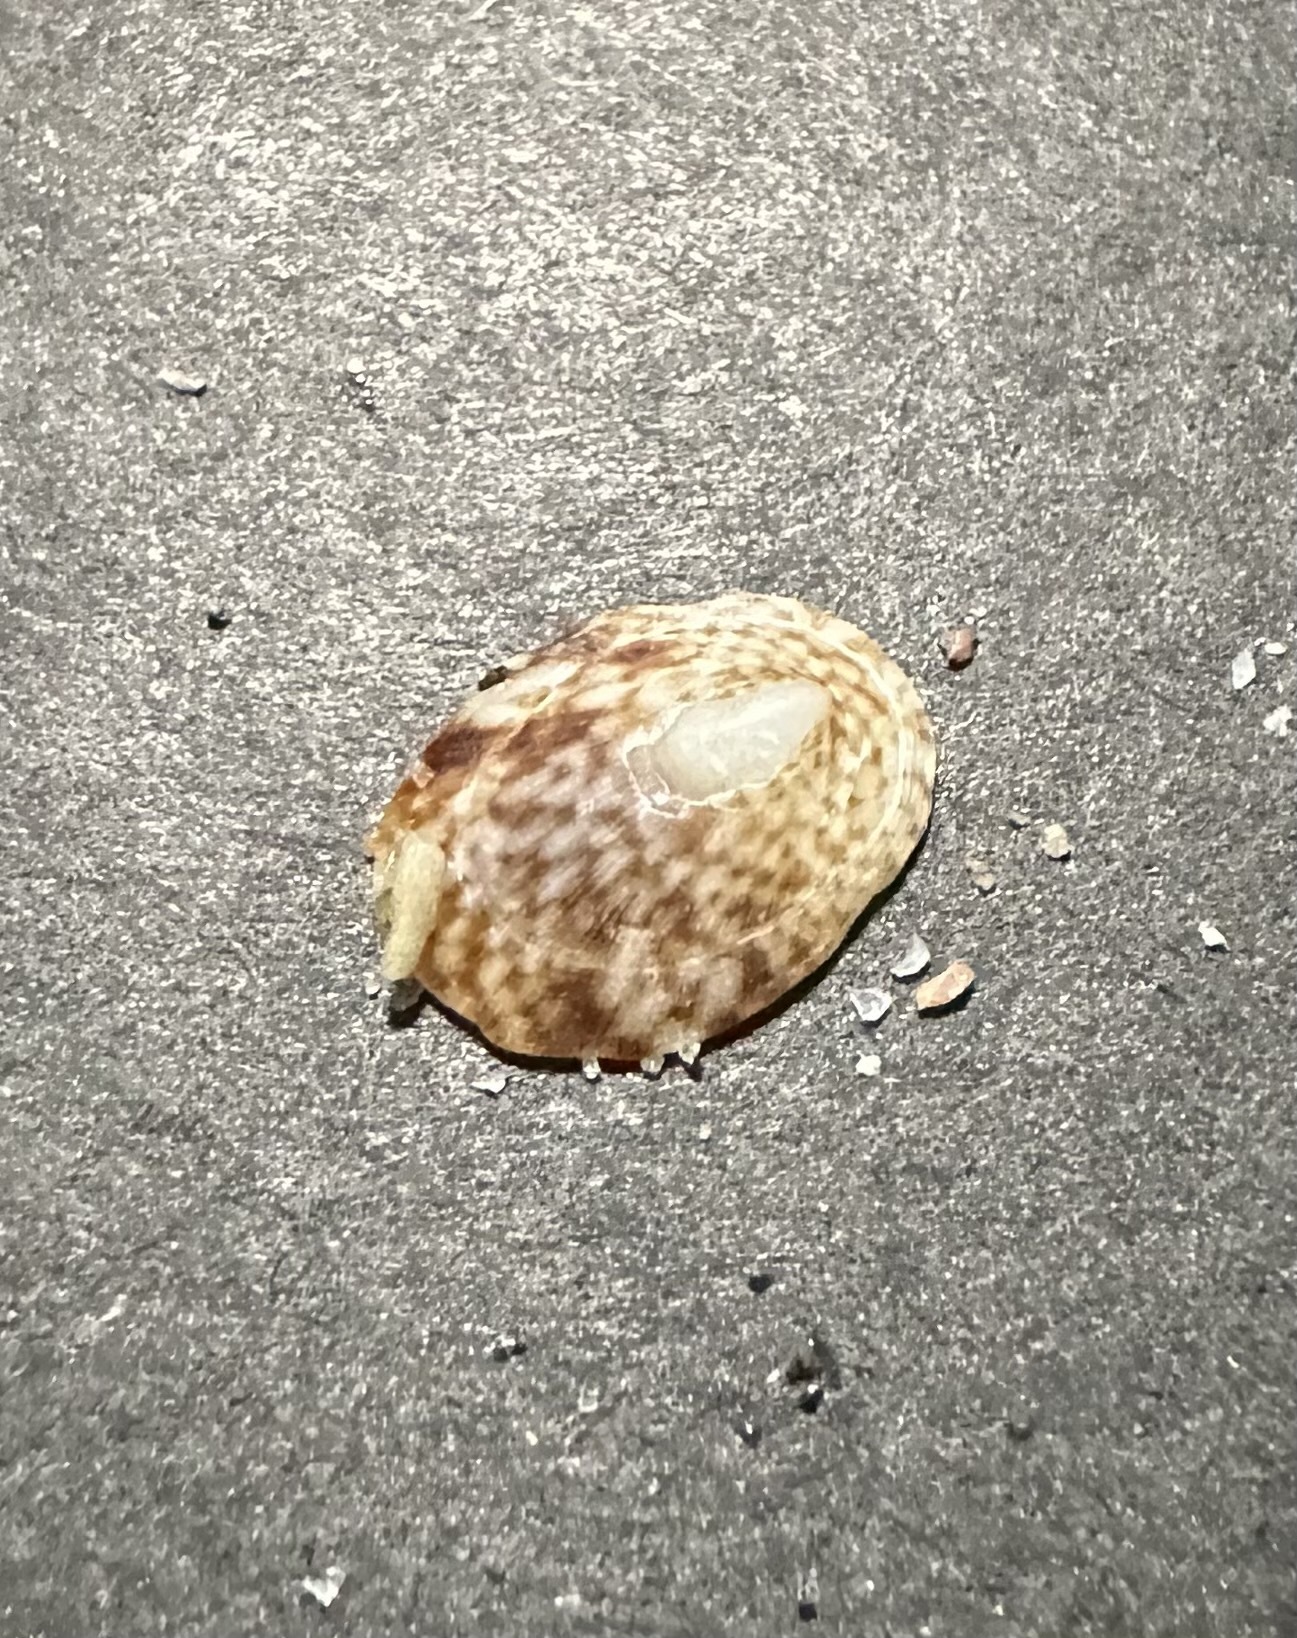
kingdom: Animalia
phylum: Mollusca
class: Gastropoda
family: Lottiidae
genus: Testudinalia
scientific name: Testudinalia testudinalis
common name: Common tortoiseshell limpet
